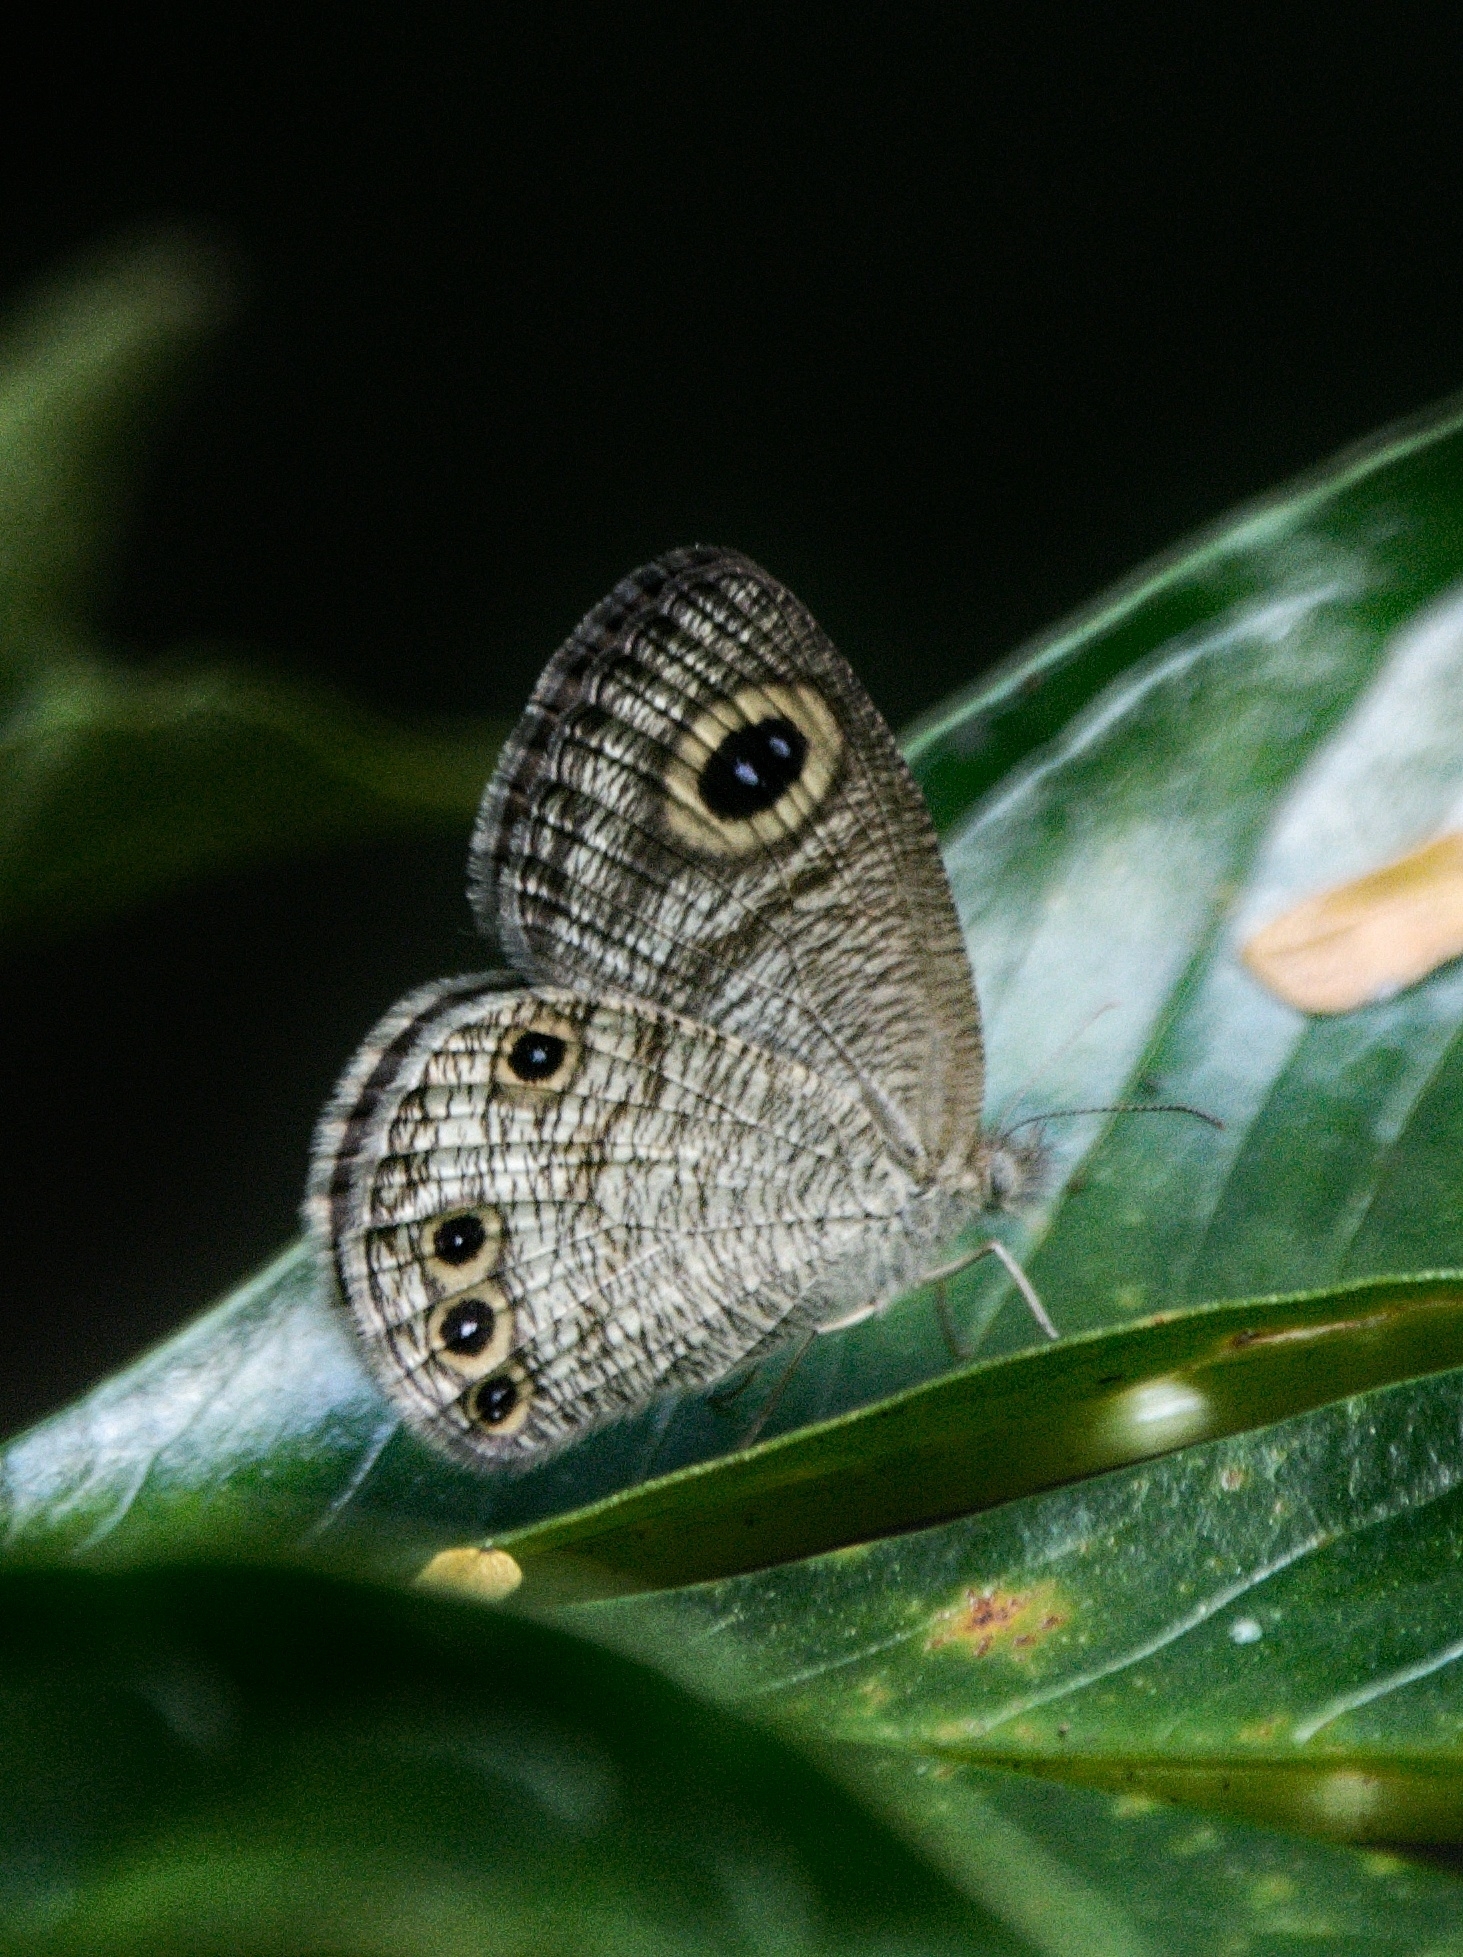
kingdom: Animalia
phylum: Arthropoda
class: Insecta
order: Lepidoptera
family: Nymphalidae
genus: Ypthima
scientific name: Ypthima huebneri
